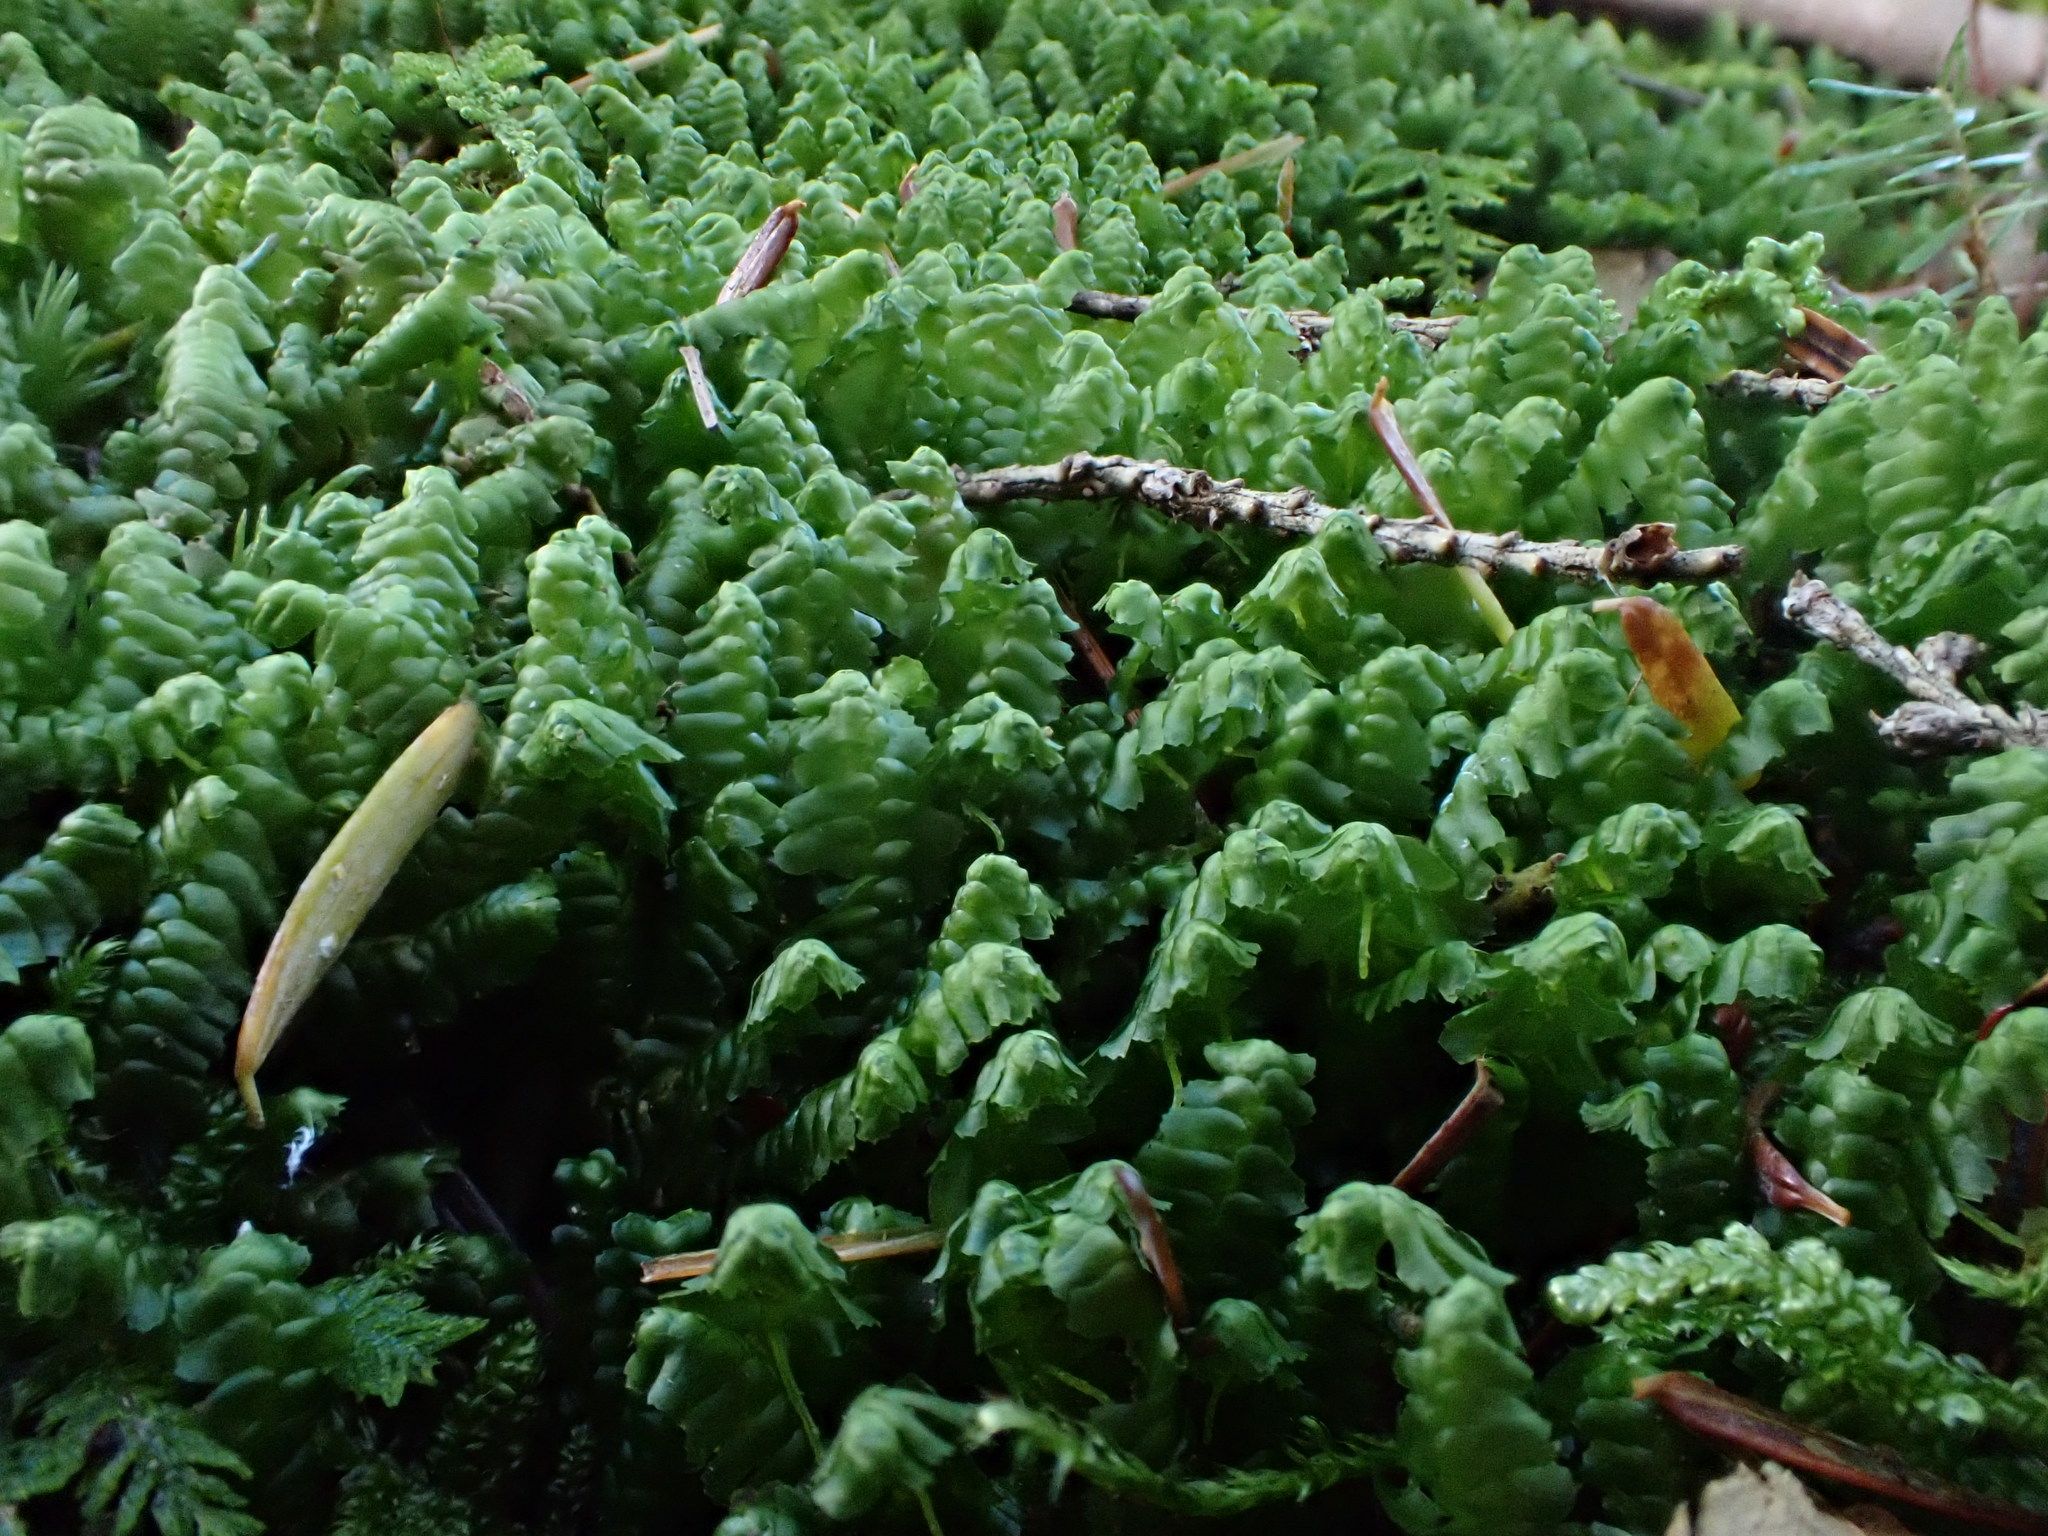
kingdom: Plantae
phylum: Marchantiophyta
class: Jungermanniopsida
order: Jungermanniales
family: Lepidoziaceae
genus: Bazzania
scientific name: Bazzania trilobata
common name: Three-lobed whipwort
